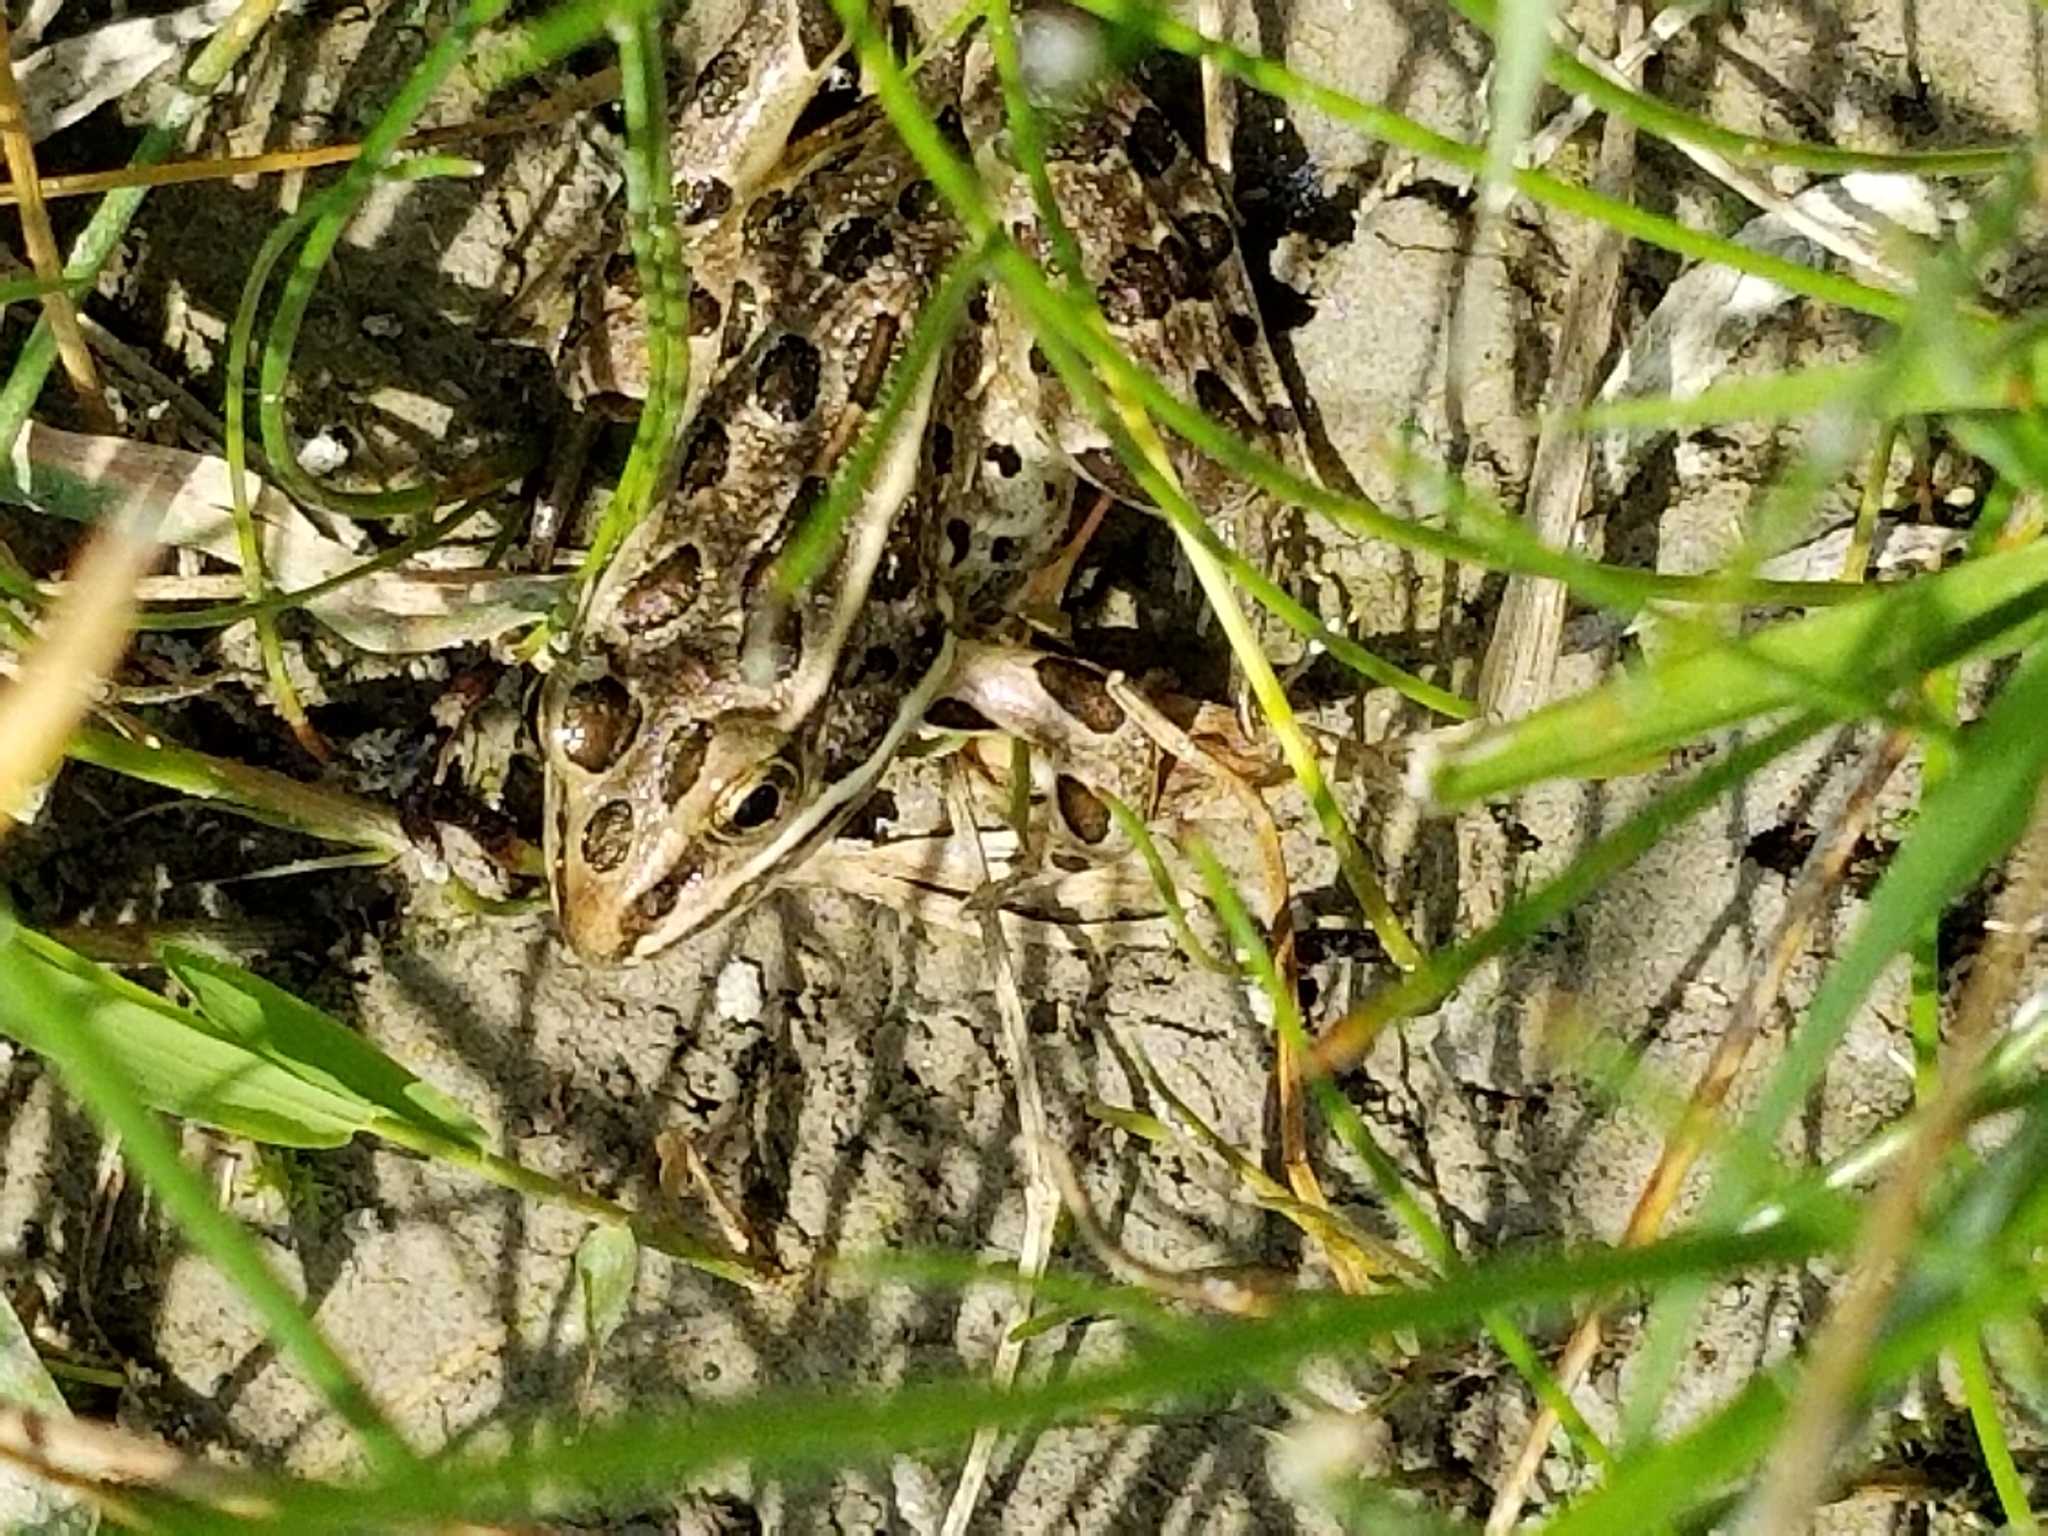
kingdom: Animalia
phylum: Chordata
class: Amphibia
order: Anura
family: Ranidae
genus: Lithobates
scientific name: Lithobates pipiens
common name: Northern leopard frog
